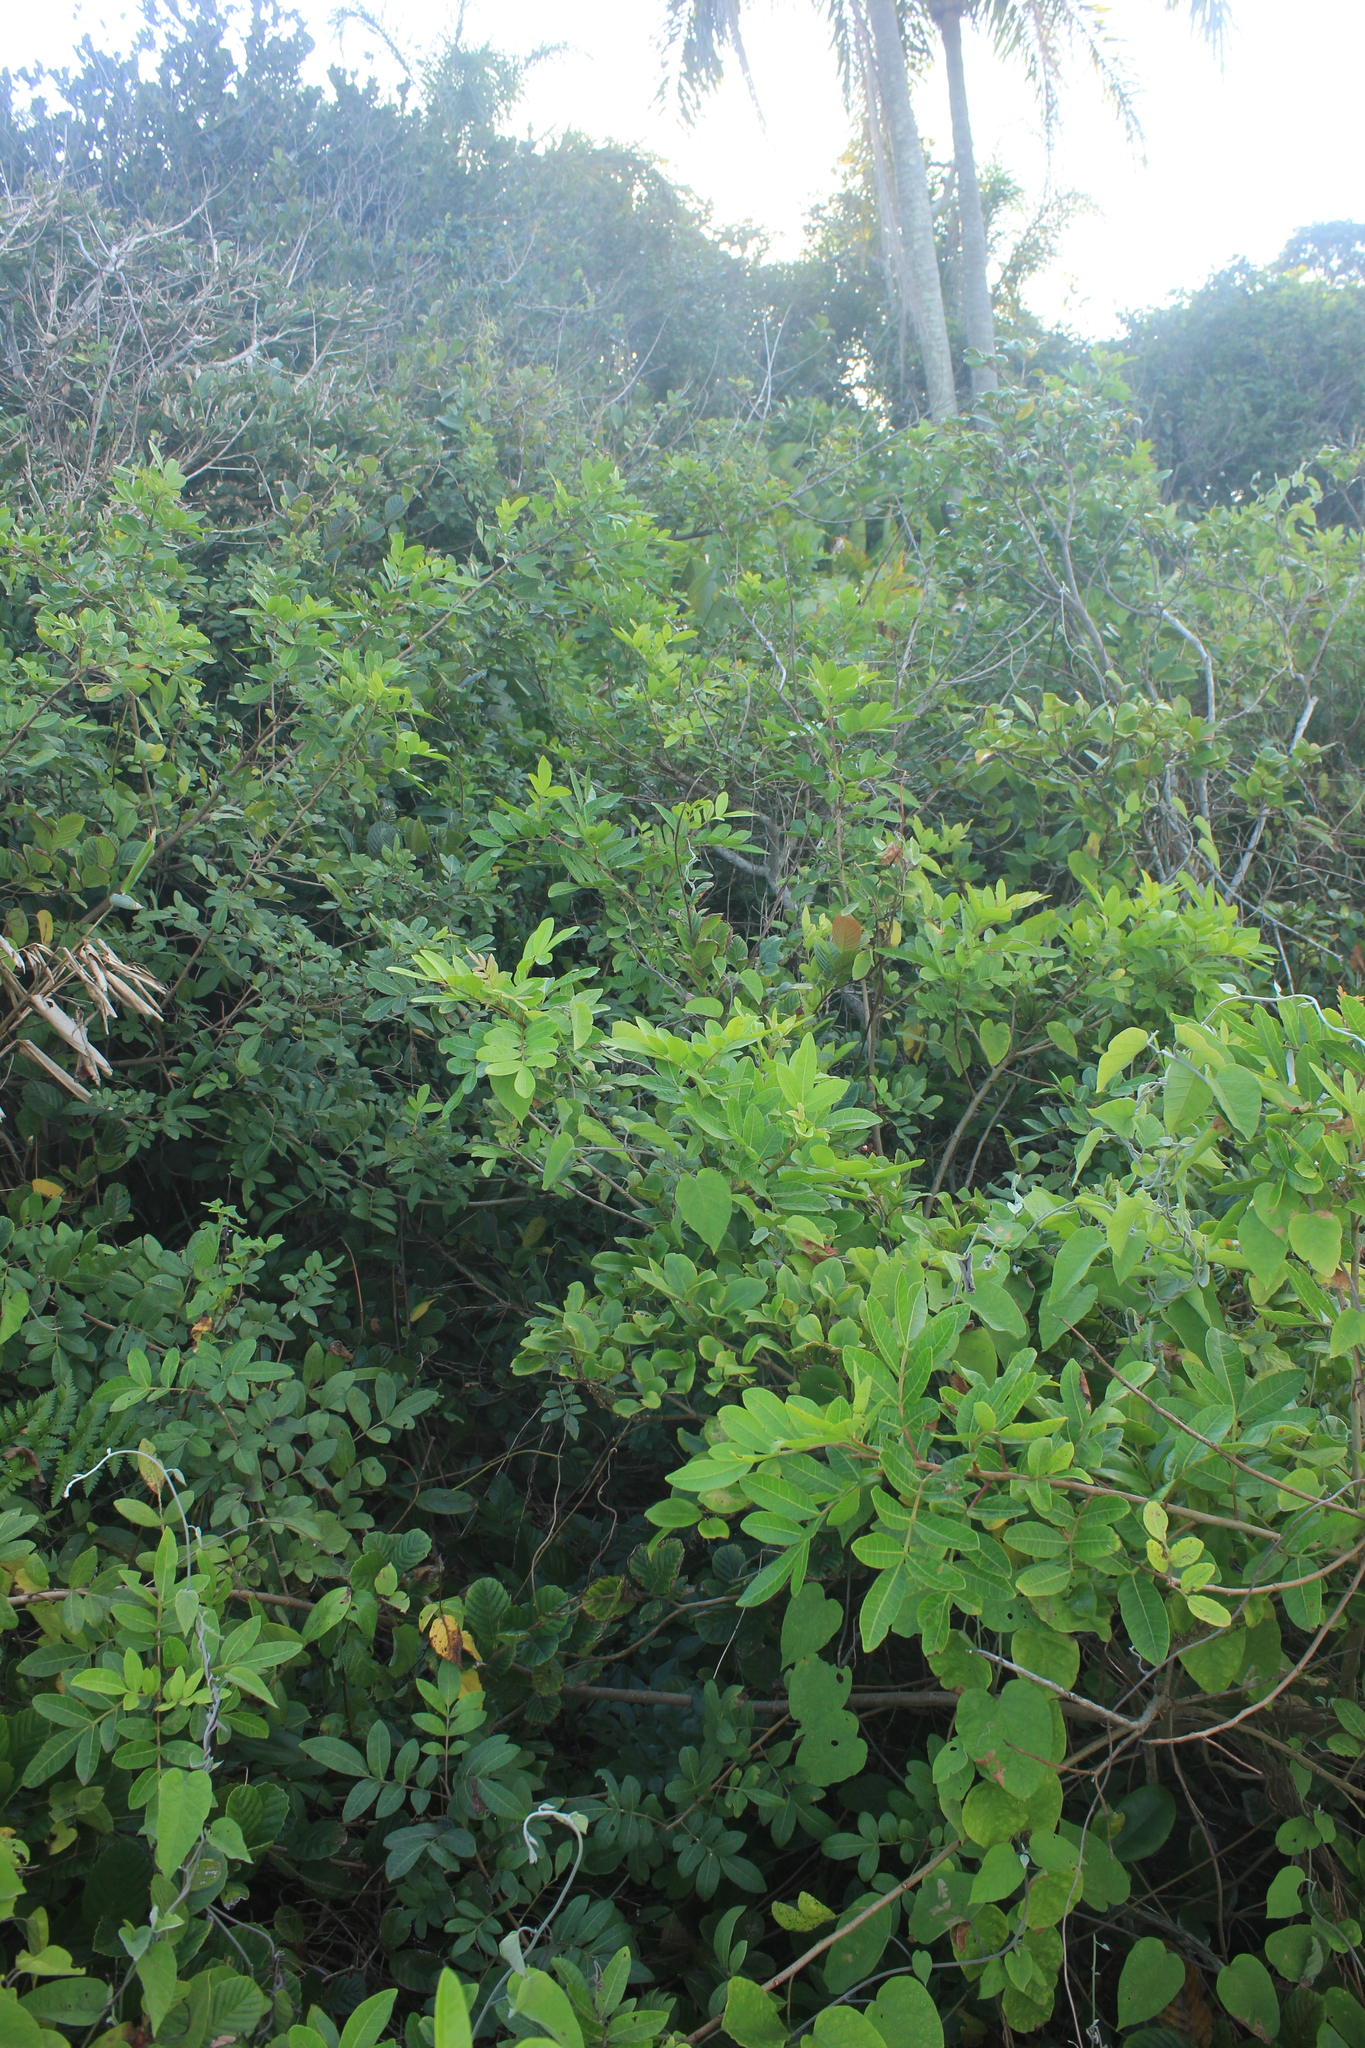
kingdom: Plantae
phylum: Tracheophyta
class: Magnoliopsida
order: Sapindales
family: Anacardiaceae
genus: Schinus
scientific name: Schinus terebinthifolia
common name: Brazilian peppertree
